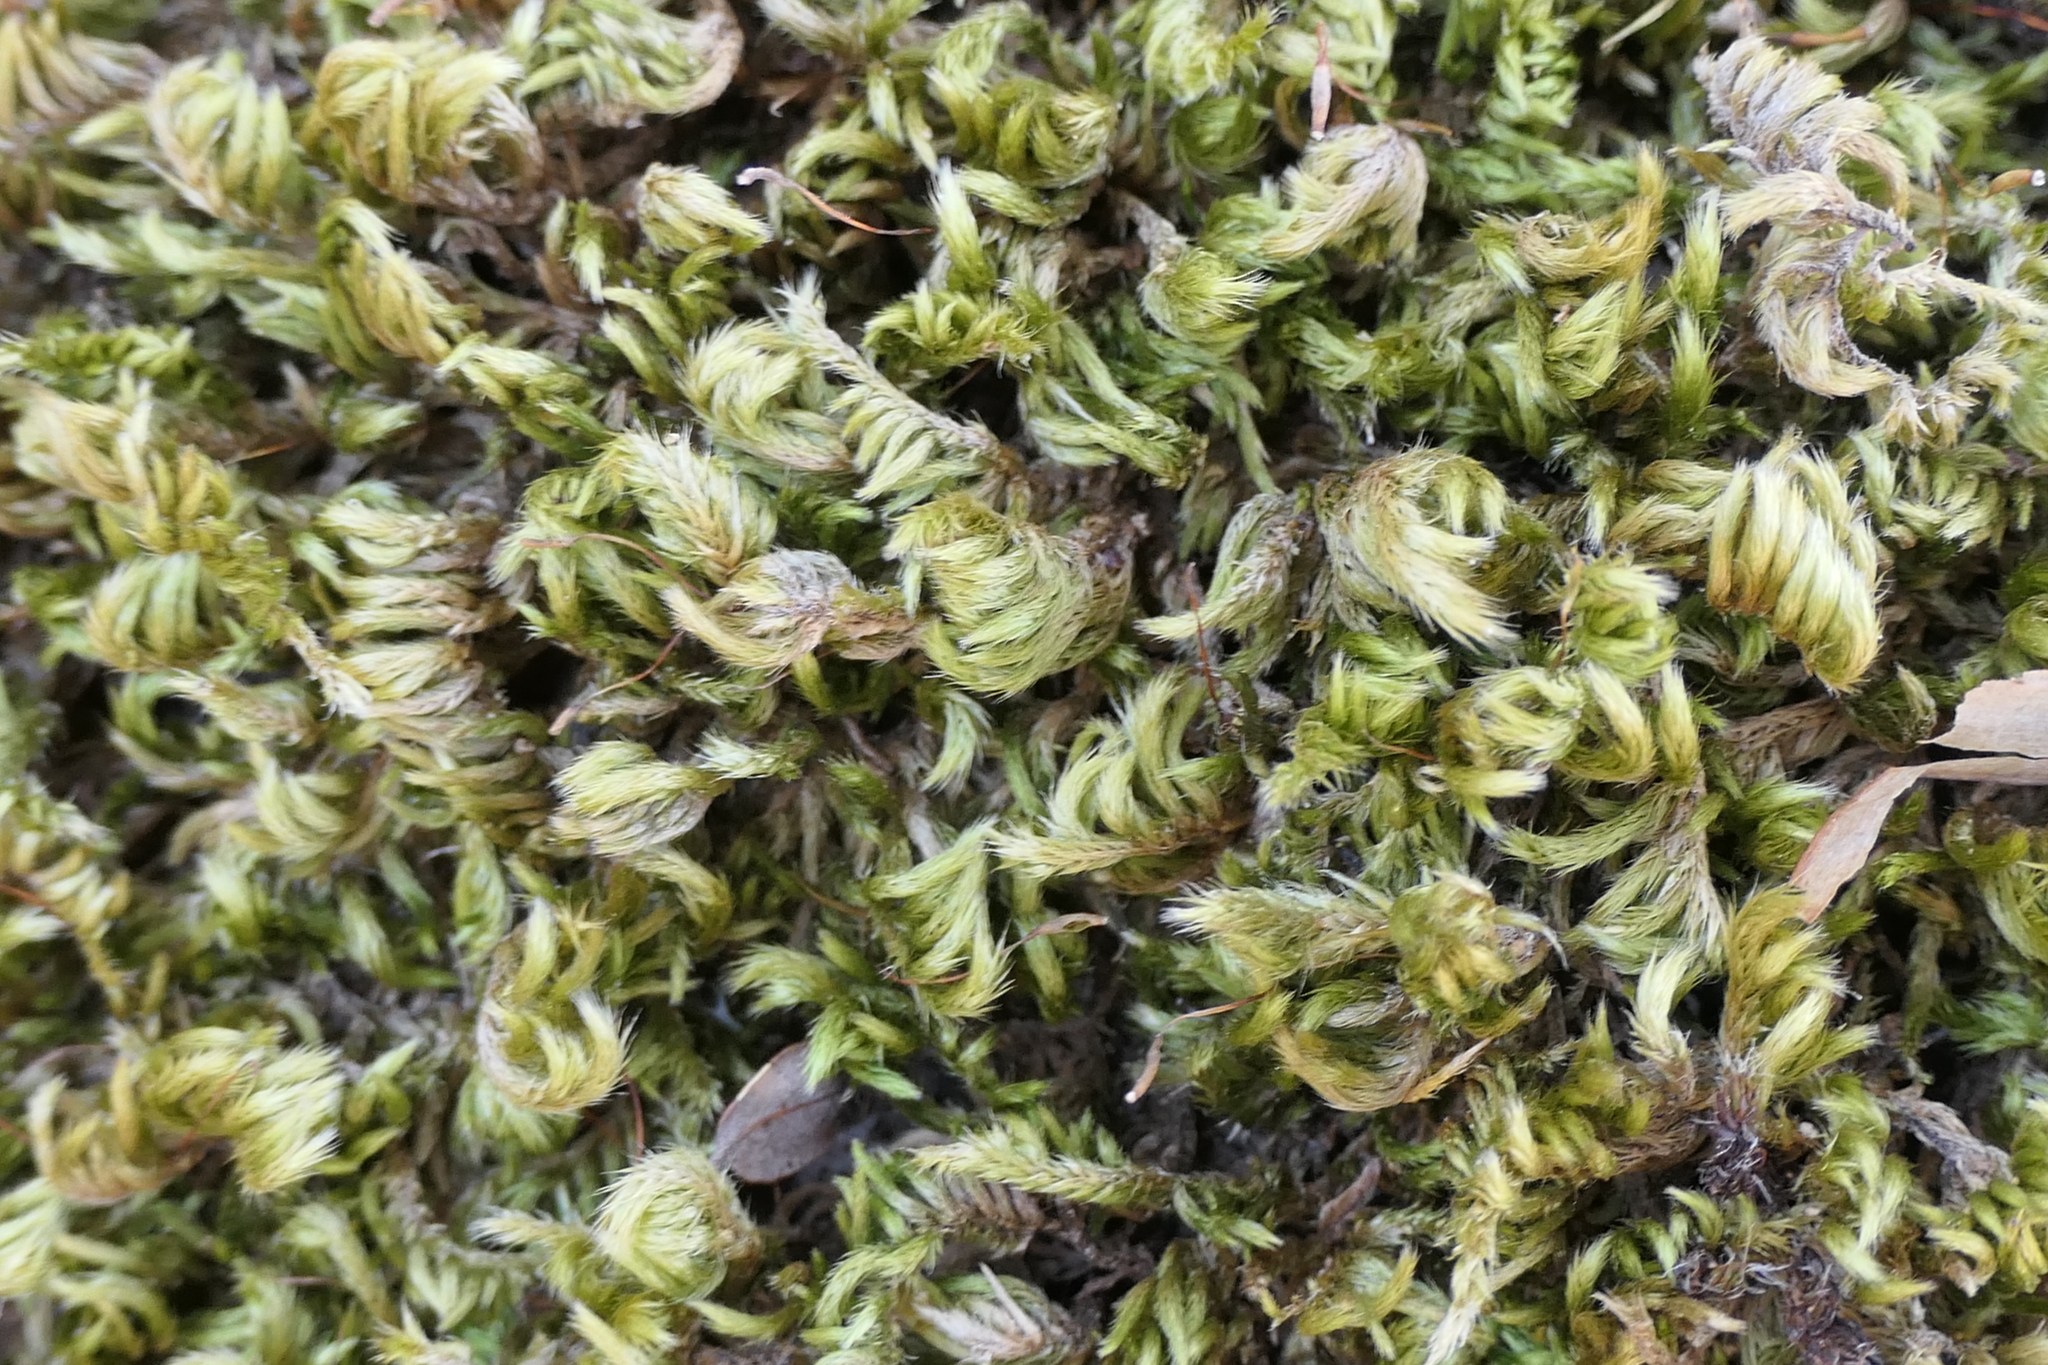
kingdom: Plantae
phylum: Bryophyta
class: Bryopsida
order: Hypnales
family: Brachytheciaceae
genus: Homalothecium
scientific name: Homalothecium sericeum
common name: Silky wall feather-moss
